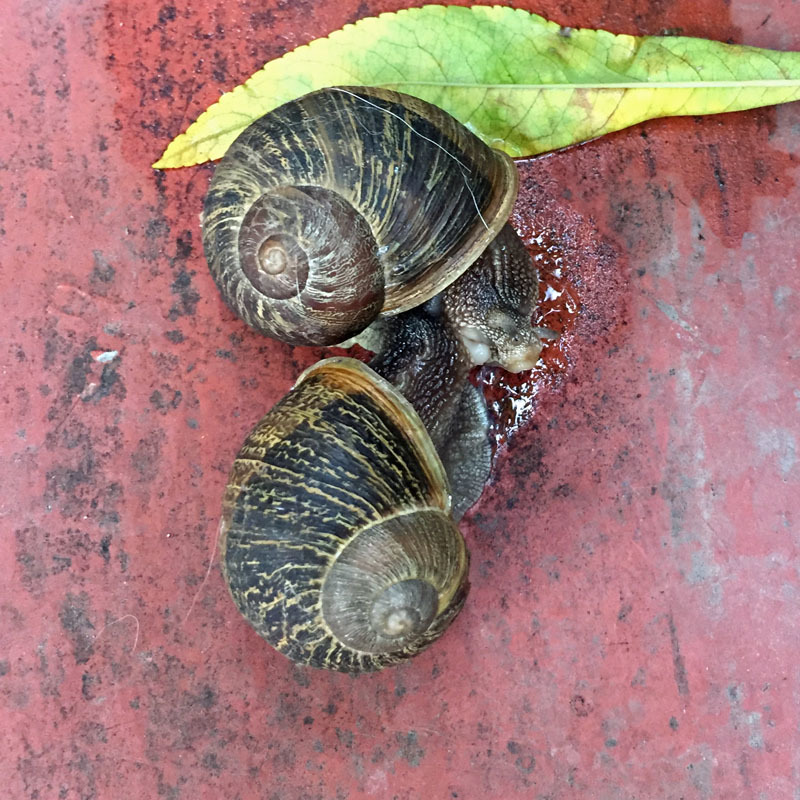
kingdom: Animalia
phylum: Mollusca
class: Gastropoda
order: Stylommatophora
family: Helicidae
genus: Cornu
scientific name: Cornu aspersum
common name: Brown garden snail
